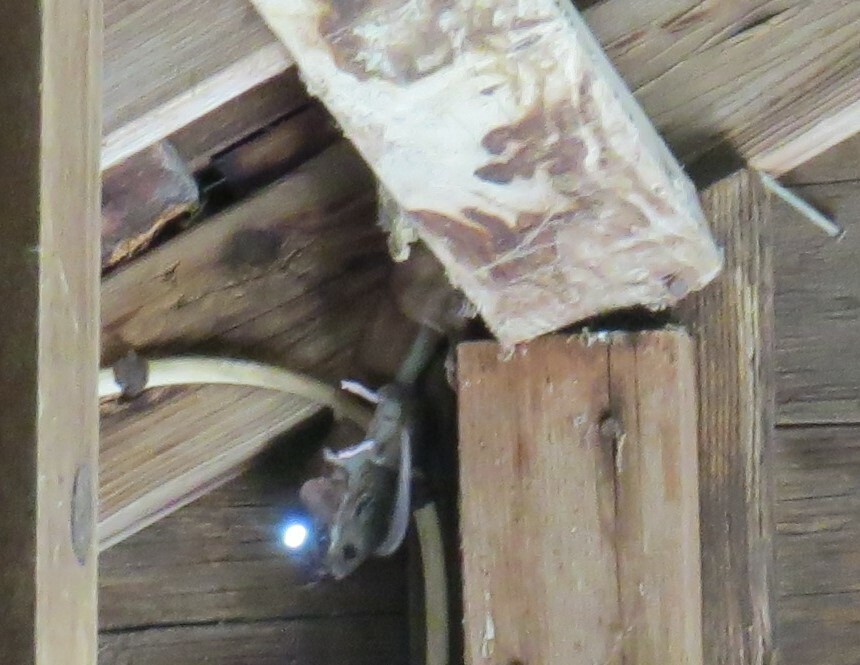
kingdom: Animalia
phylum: Chordata
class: Mammalia
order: Carnivora
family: Mustelidae
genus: Mustela
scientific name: Mustela erminea
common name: Stoat
